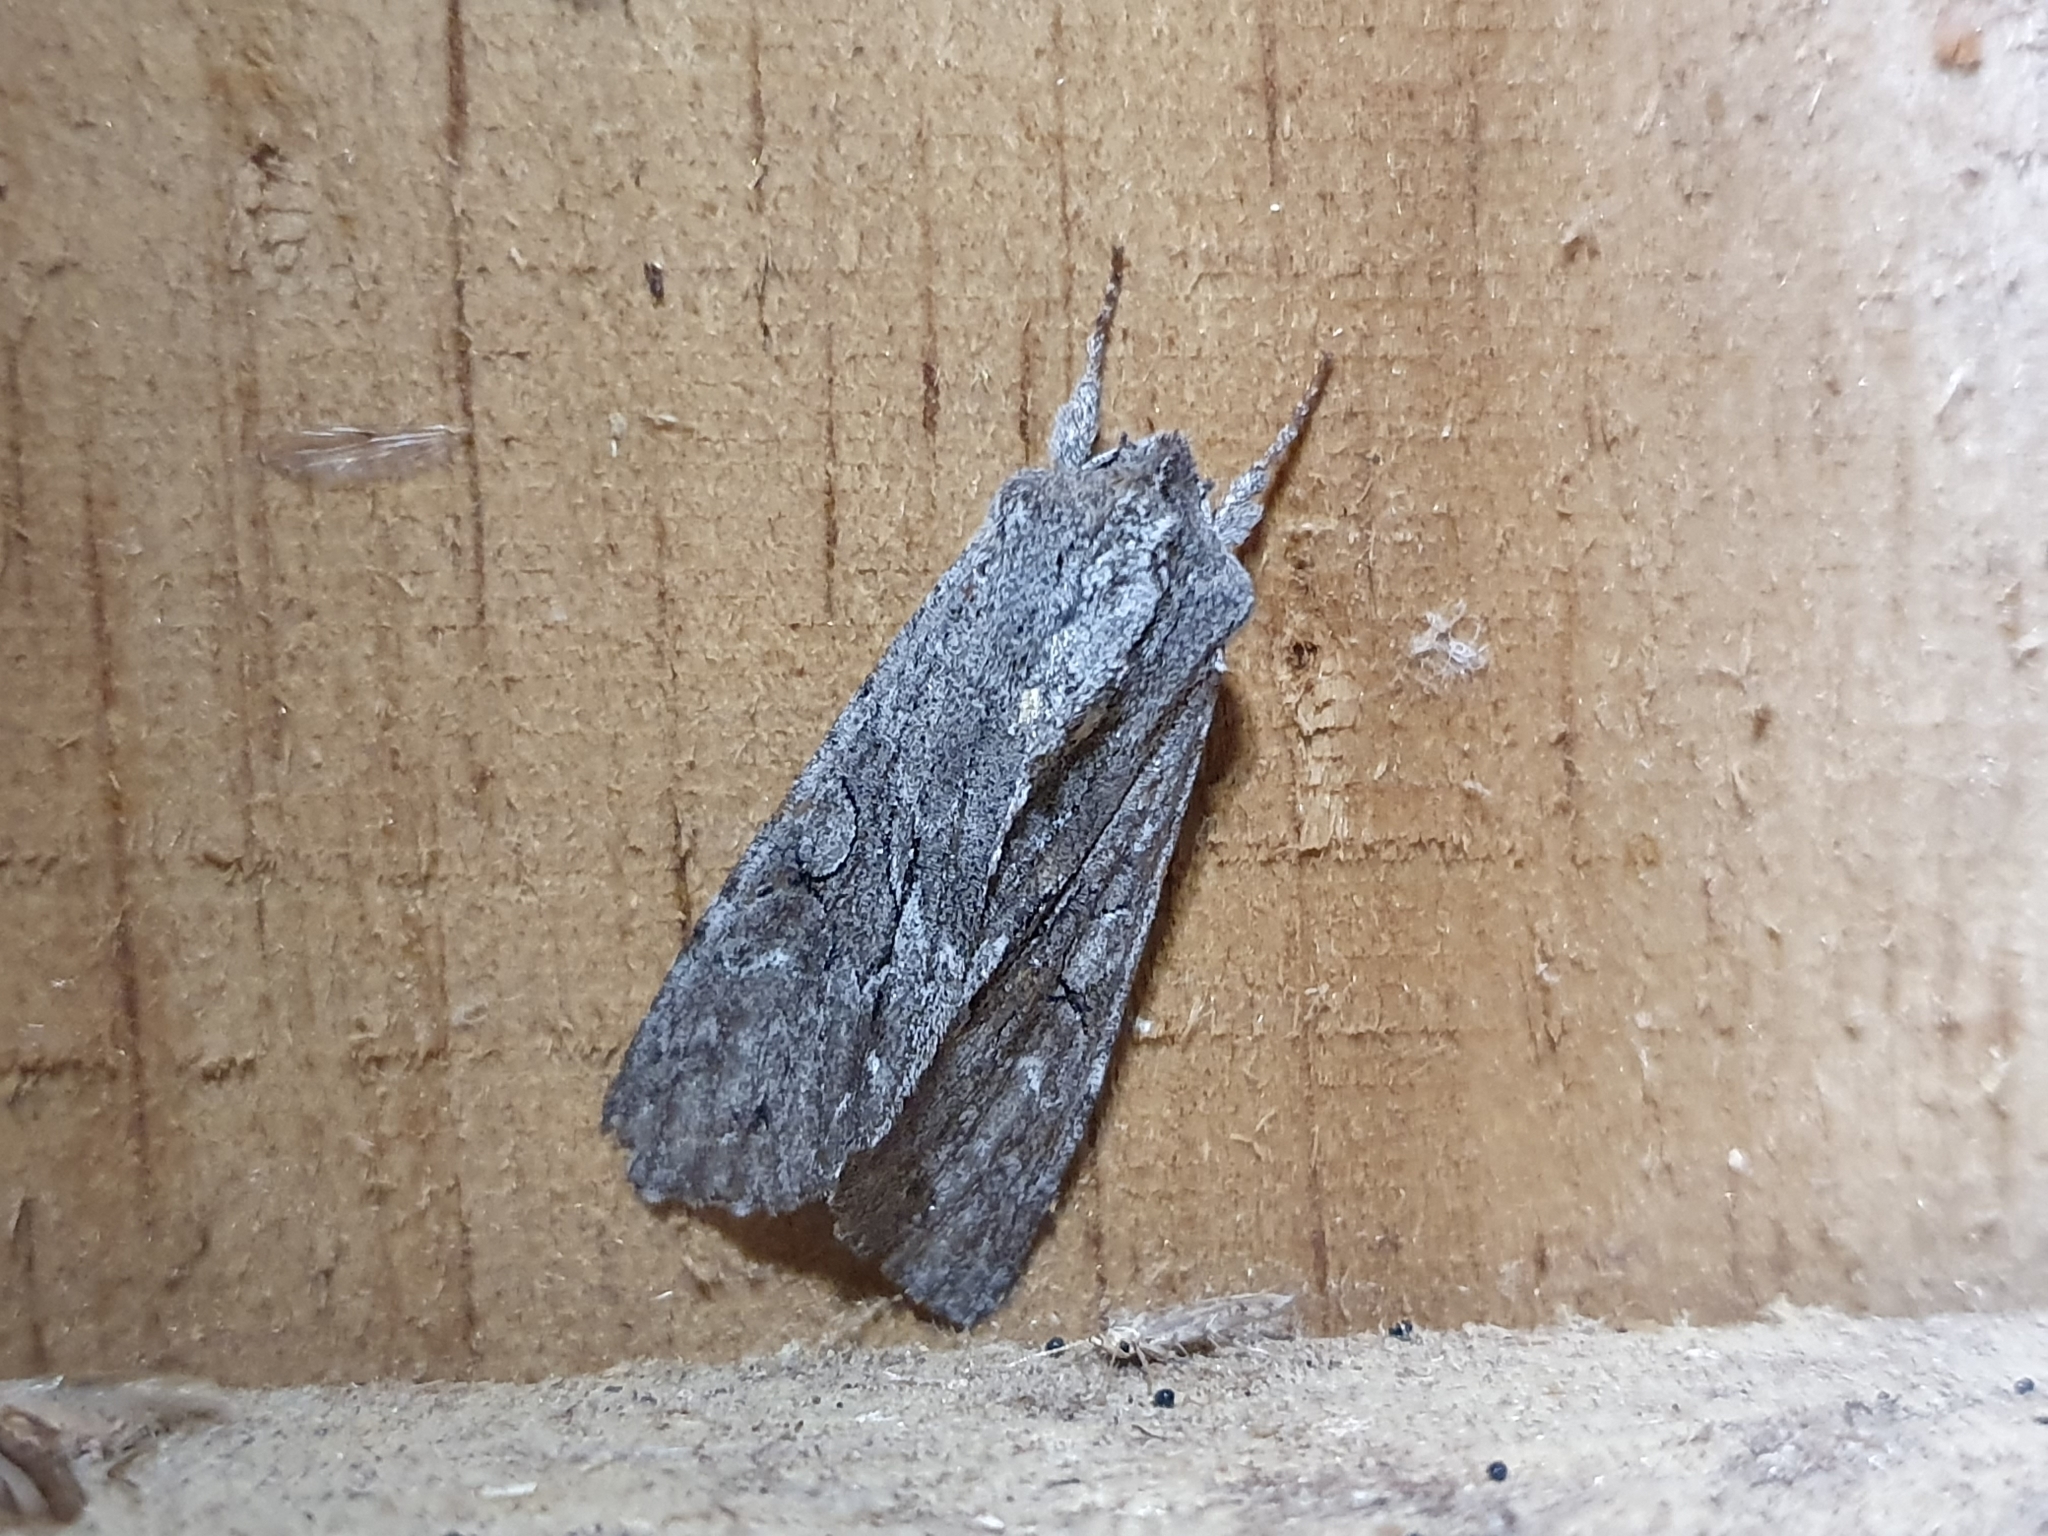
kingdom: Animalia
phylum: Arthropoda
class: Insecta
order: Lepidoptera
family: Noctuidae
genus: Ichneutica
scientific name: Ichneutica
